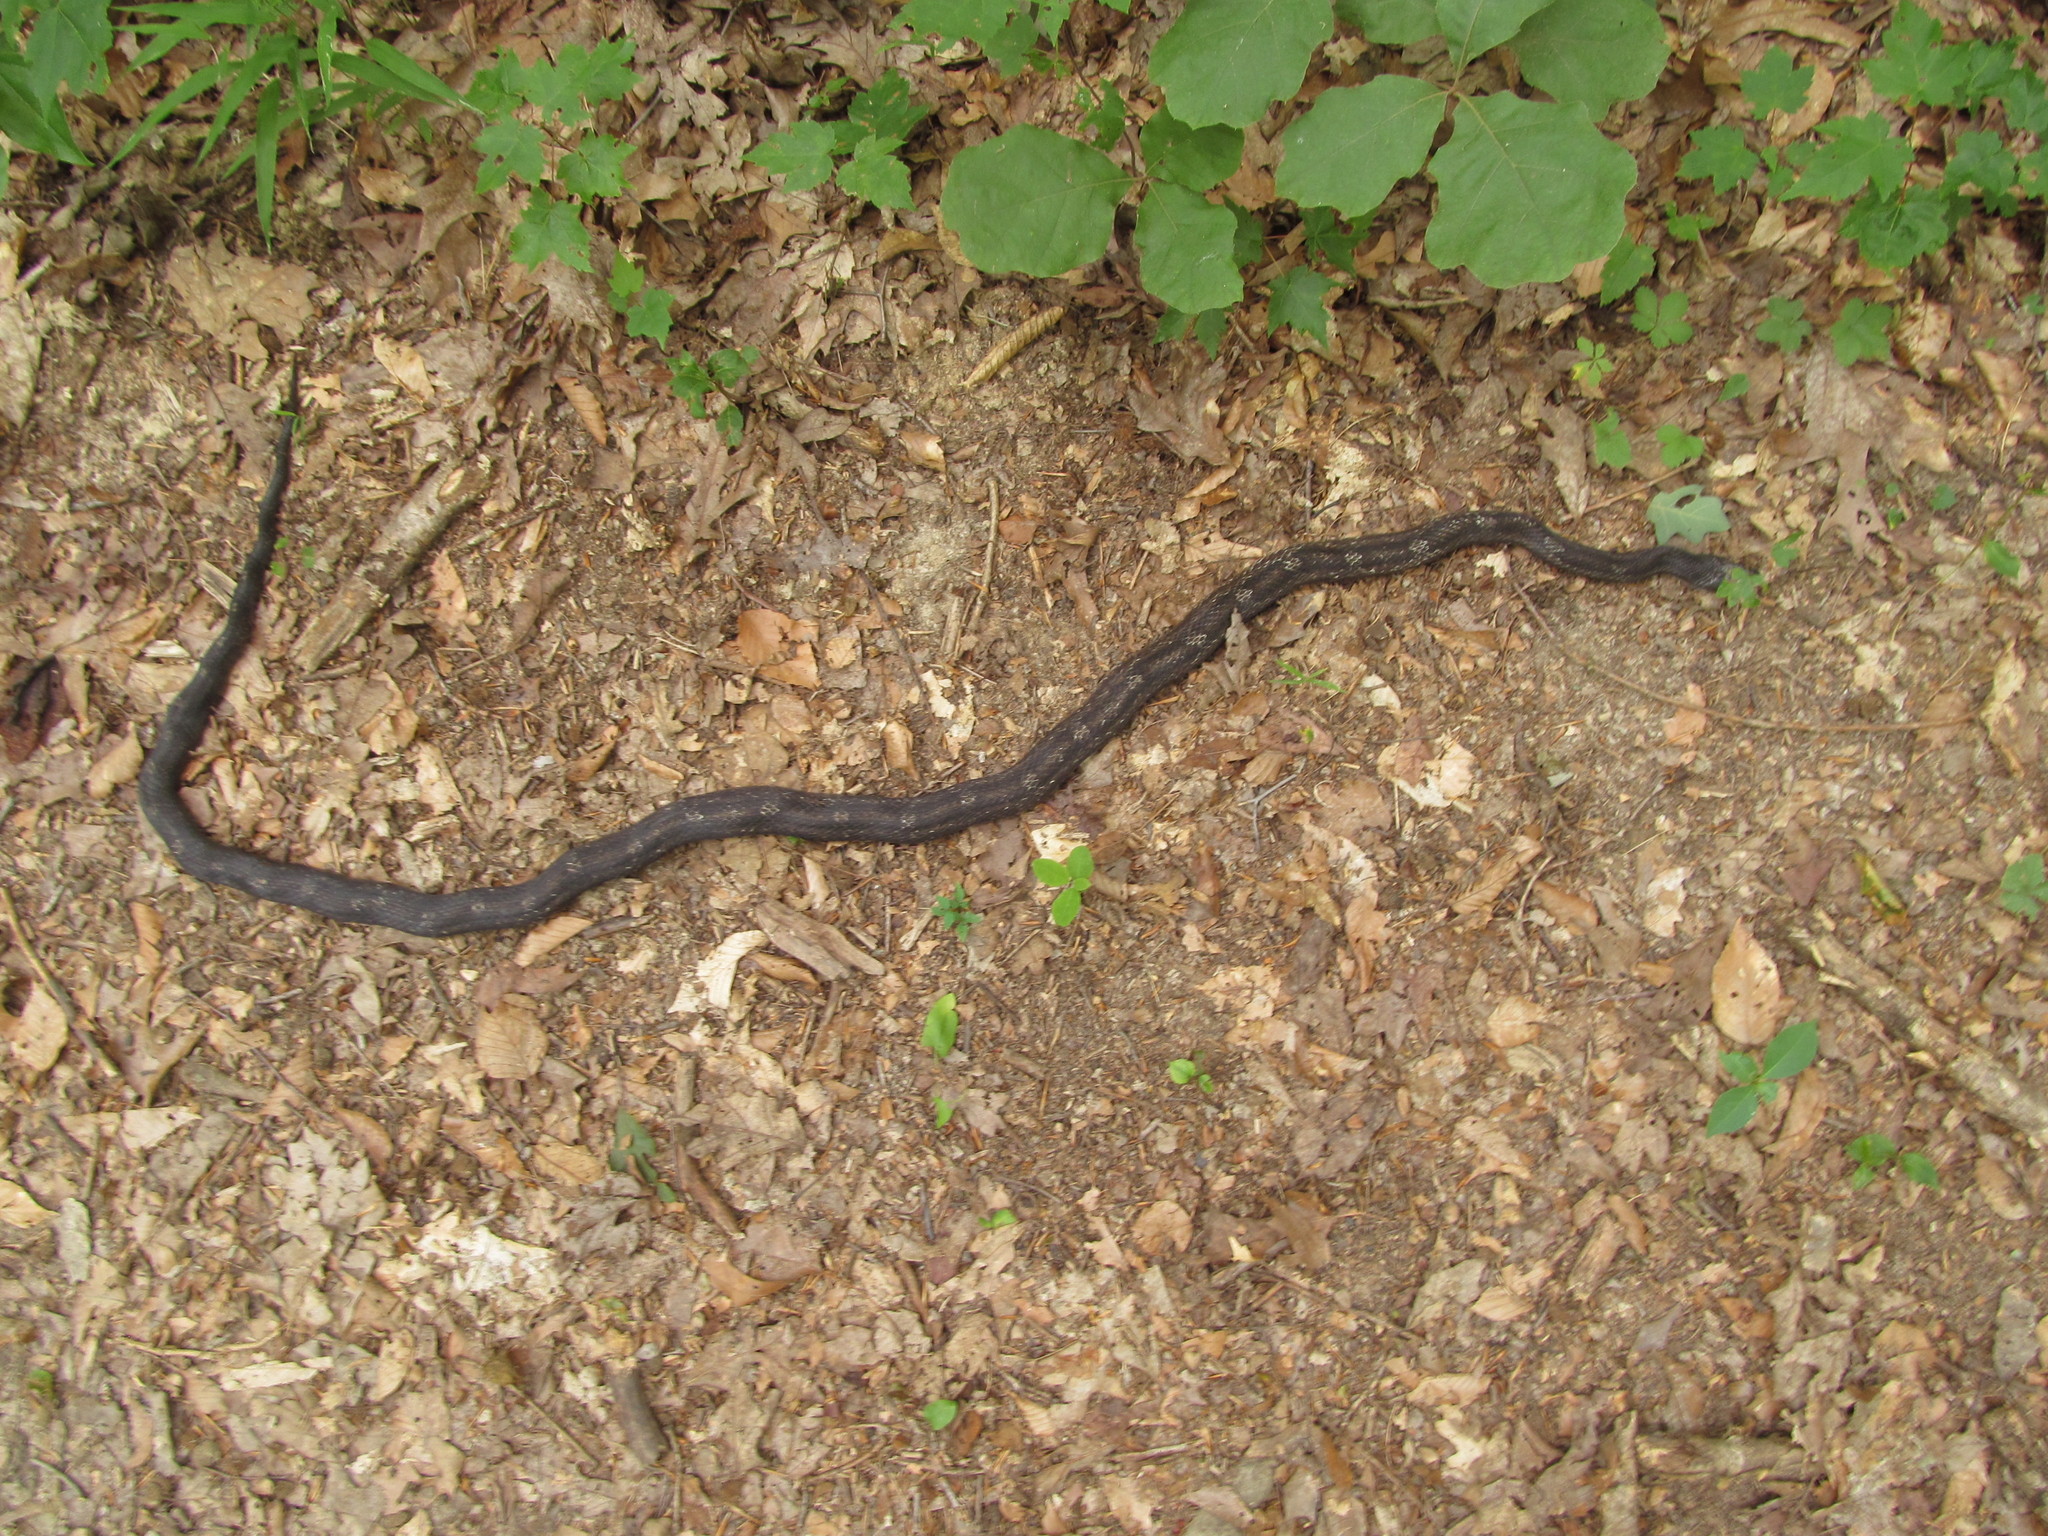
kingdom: Animalia
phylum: Chordata
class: Squamata
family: Colubridae
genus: Pantherophis
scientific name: Pantherophis spiloides
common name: Gray rat snake
